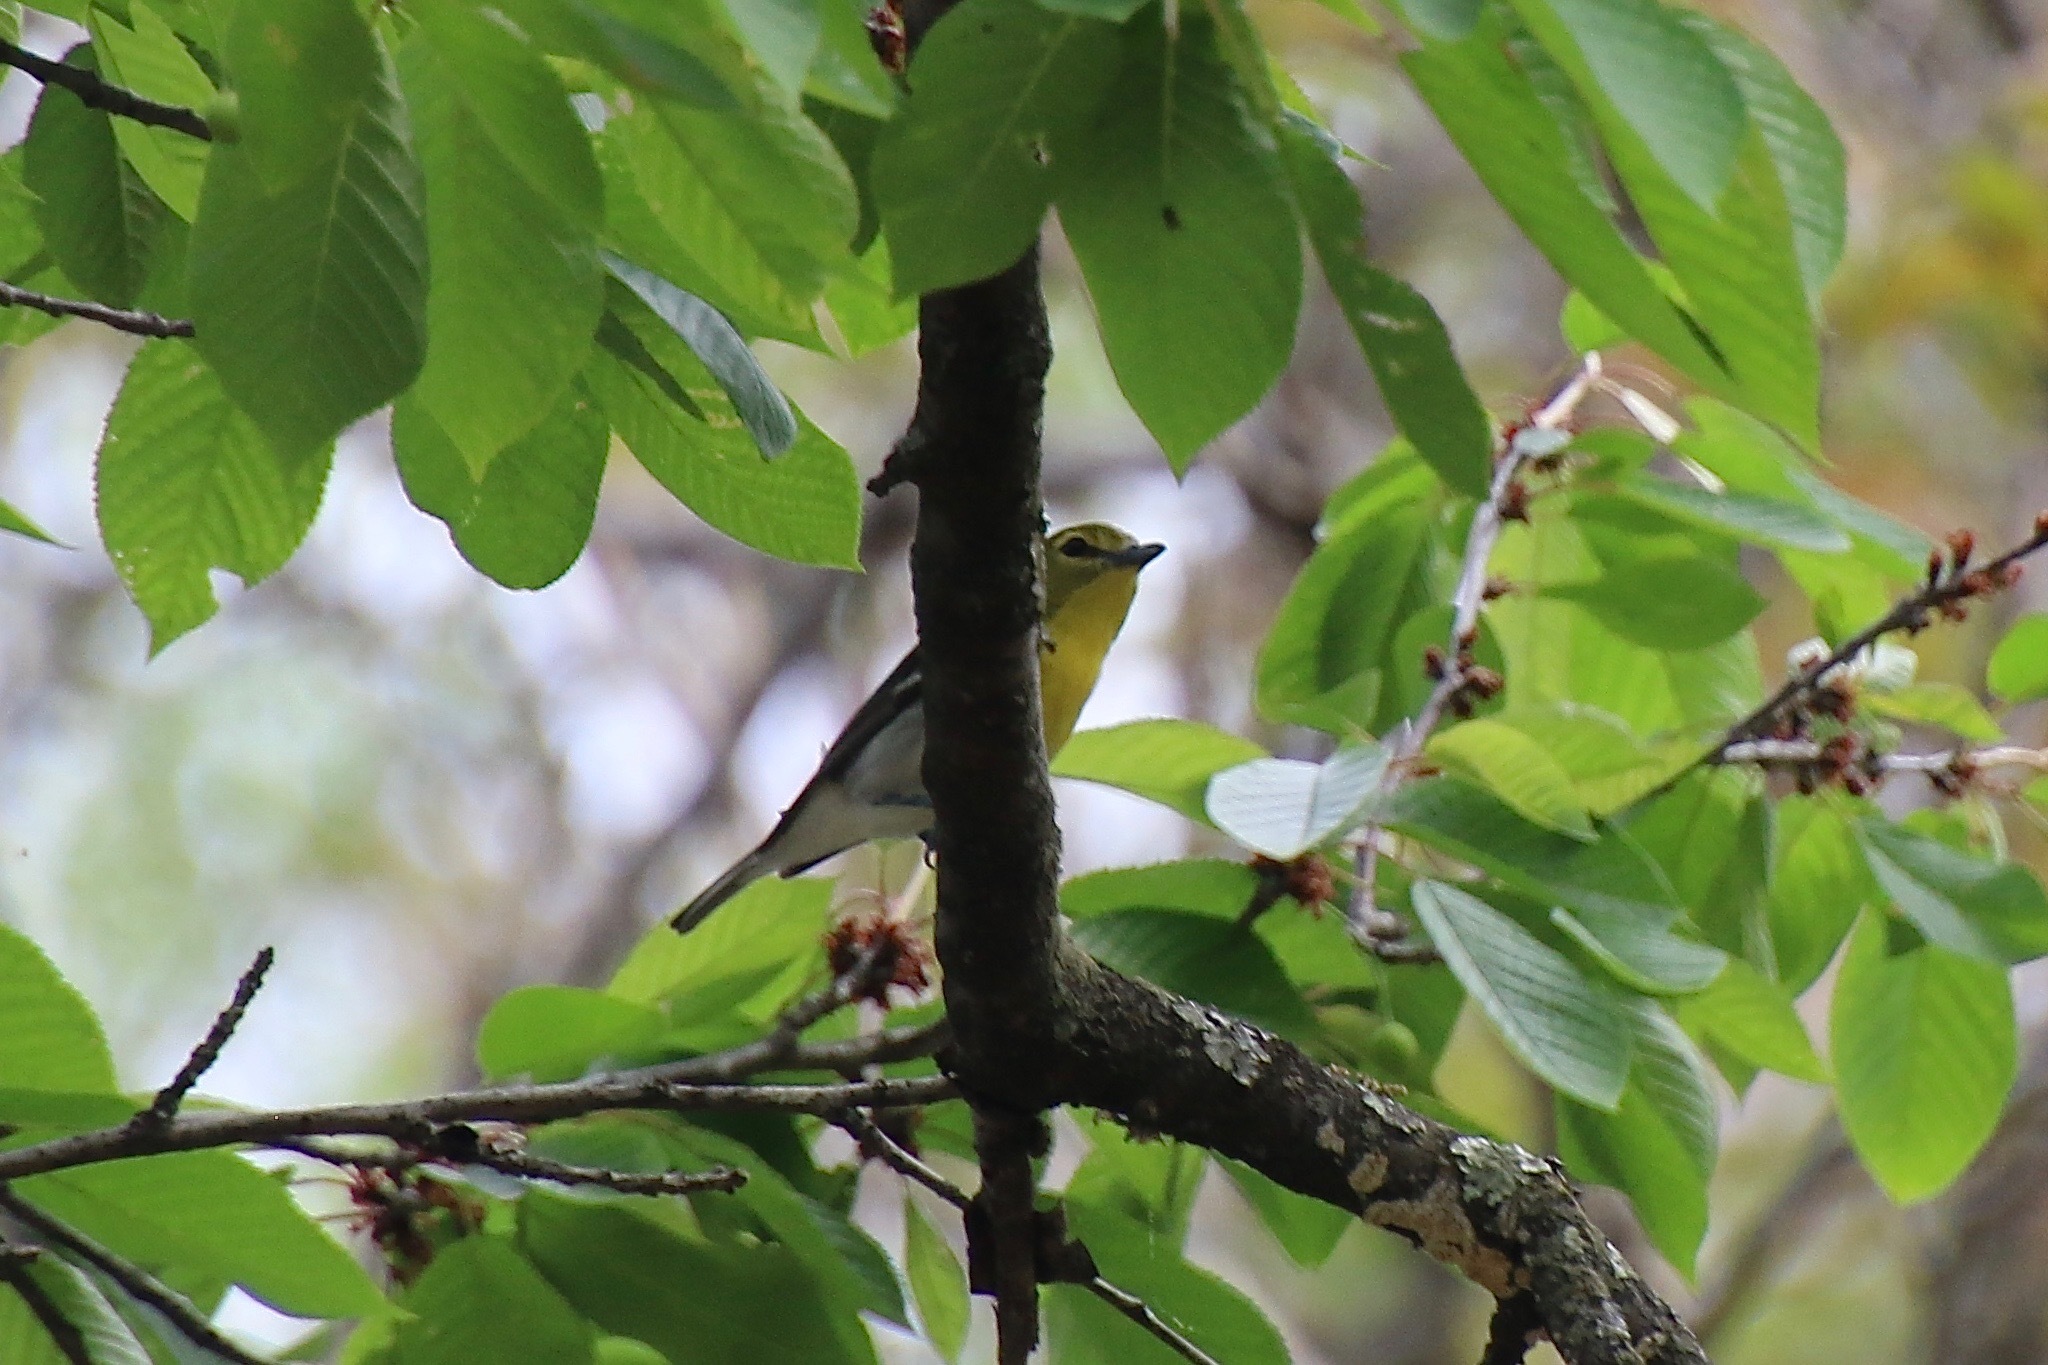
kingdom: Animalia
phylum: Chordata
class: Aves
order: Passeriformes
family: Vireonidae
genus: Vireo
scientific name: Vireo flavifrons
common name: Yellow-throated vireo
